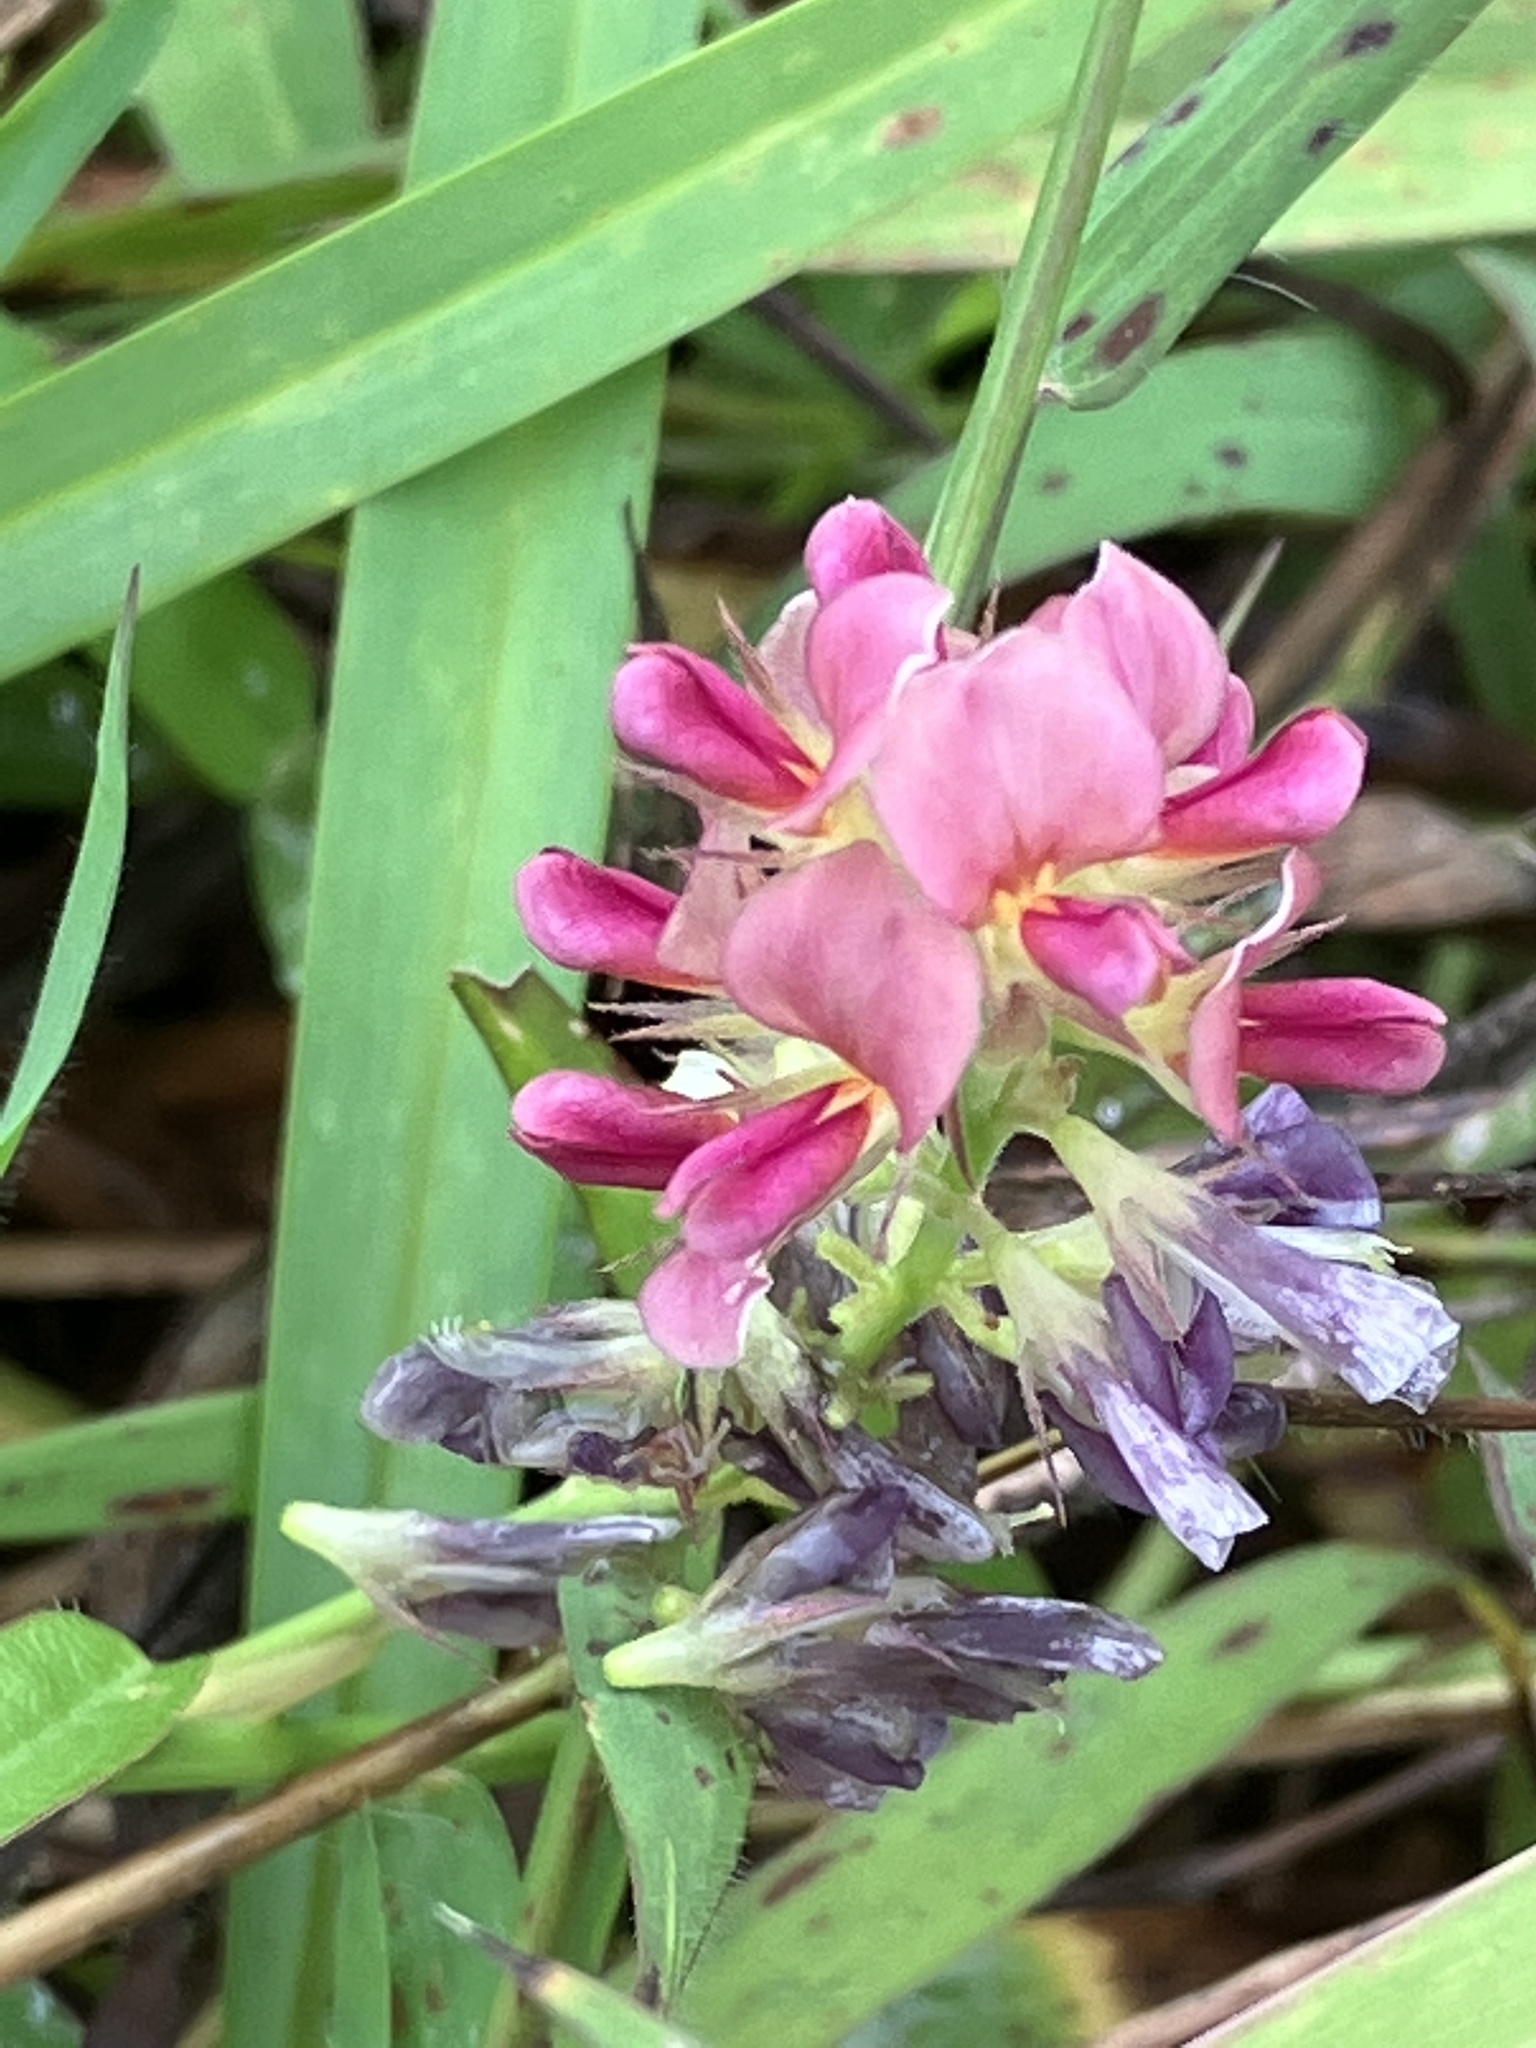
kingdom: Plantae
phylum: Tracheophyta
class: Magnoliopsida
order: Fabales
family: Fabaceae
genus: Alysicarpus
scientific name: Alysicarpus vaginalis
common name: White moneywort
